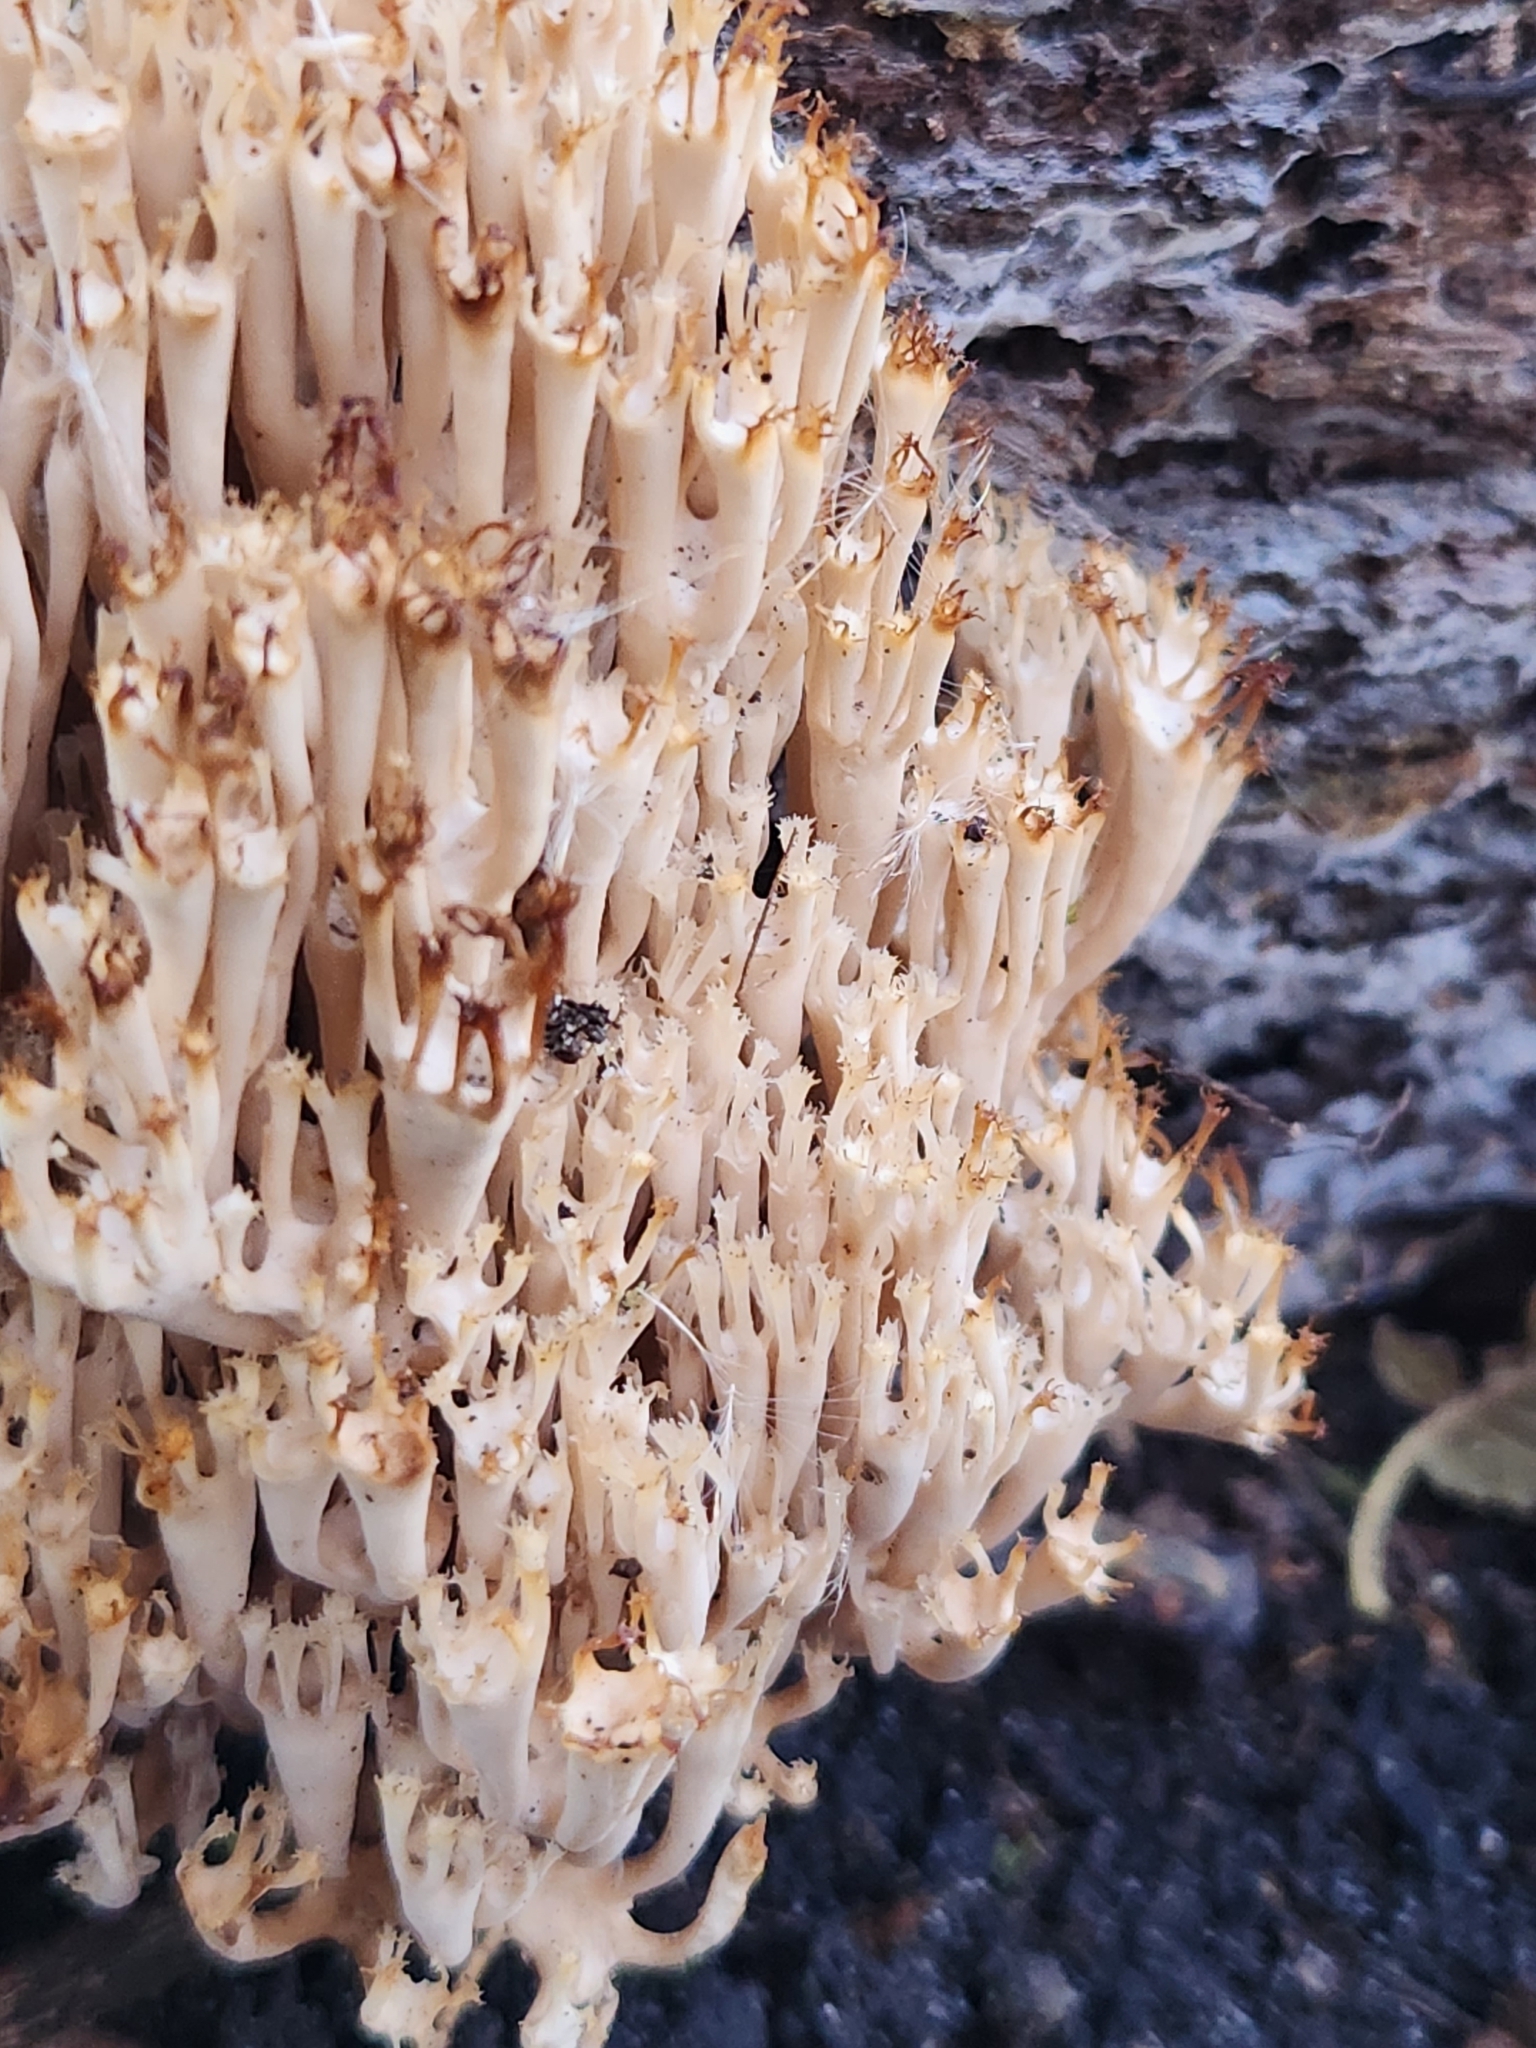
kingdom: Fungi
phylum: Basidiomycota
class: Agaricomycetes
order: Russulales
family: Auriscalpiaceae
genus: Artomyces
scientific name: Artomyces pyxidatus
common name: Crown-tipped coral fungus
